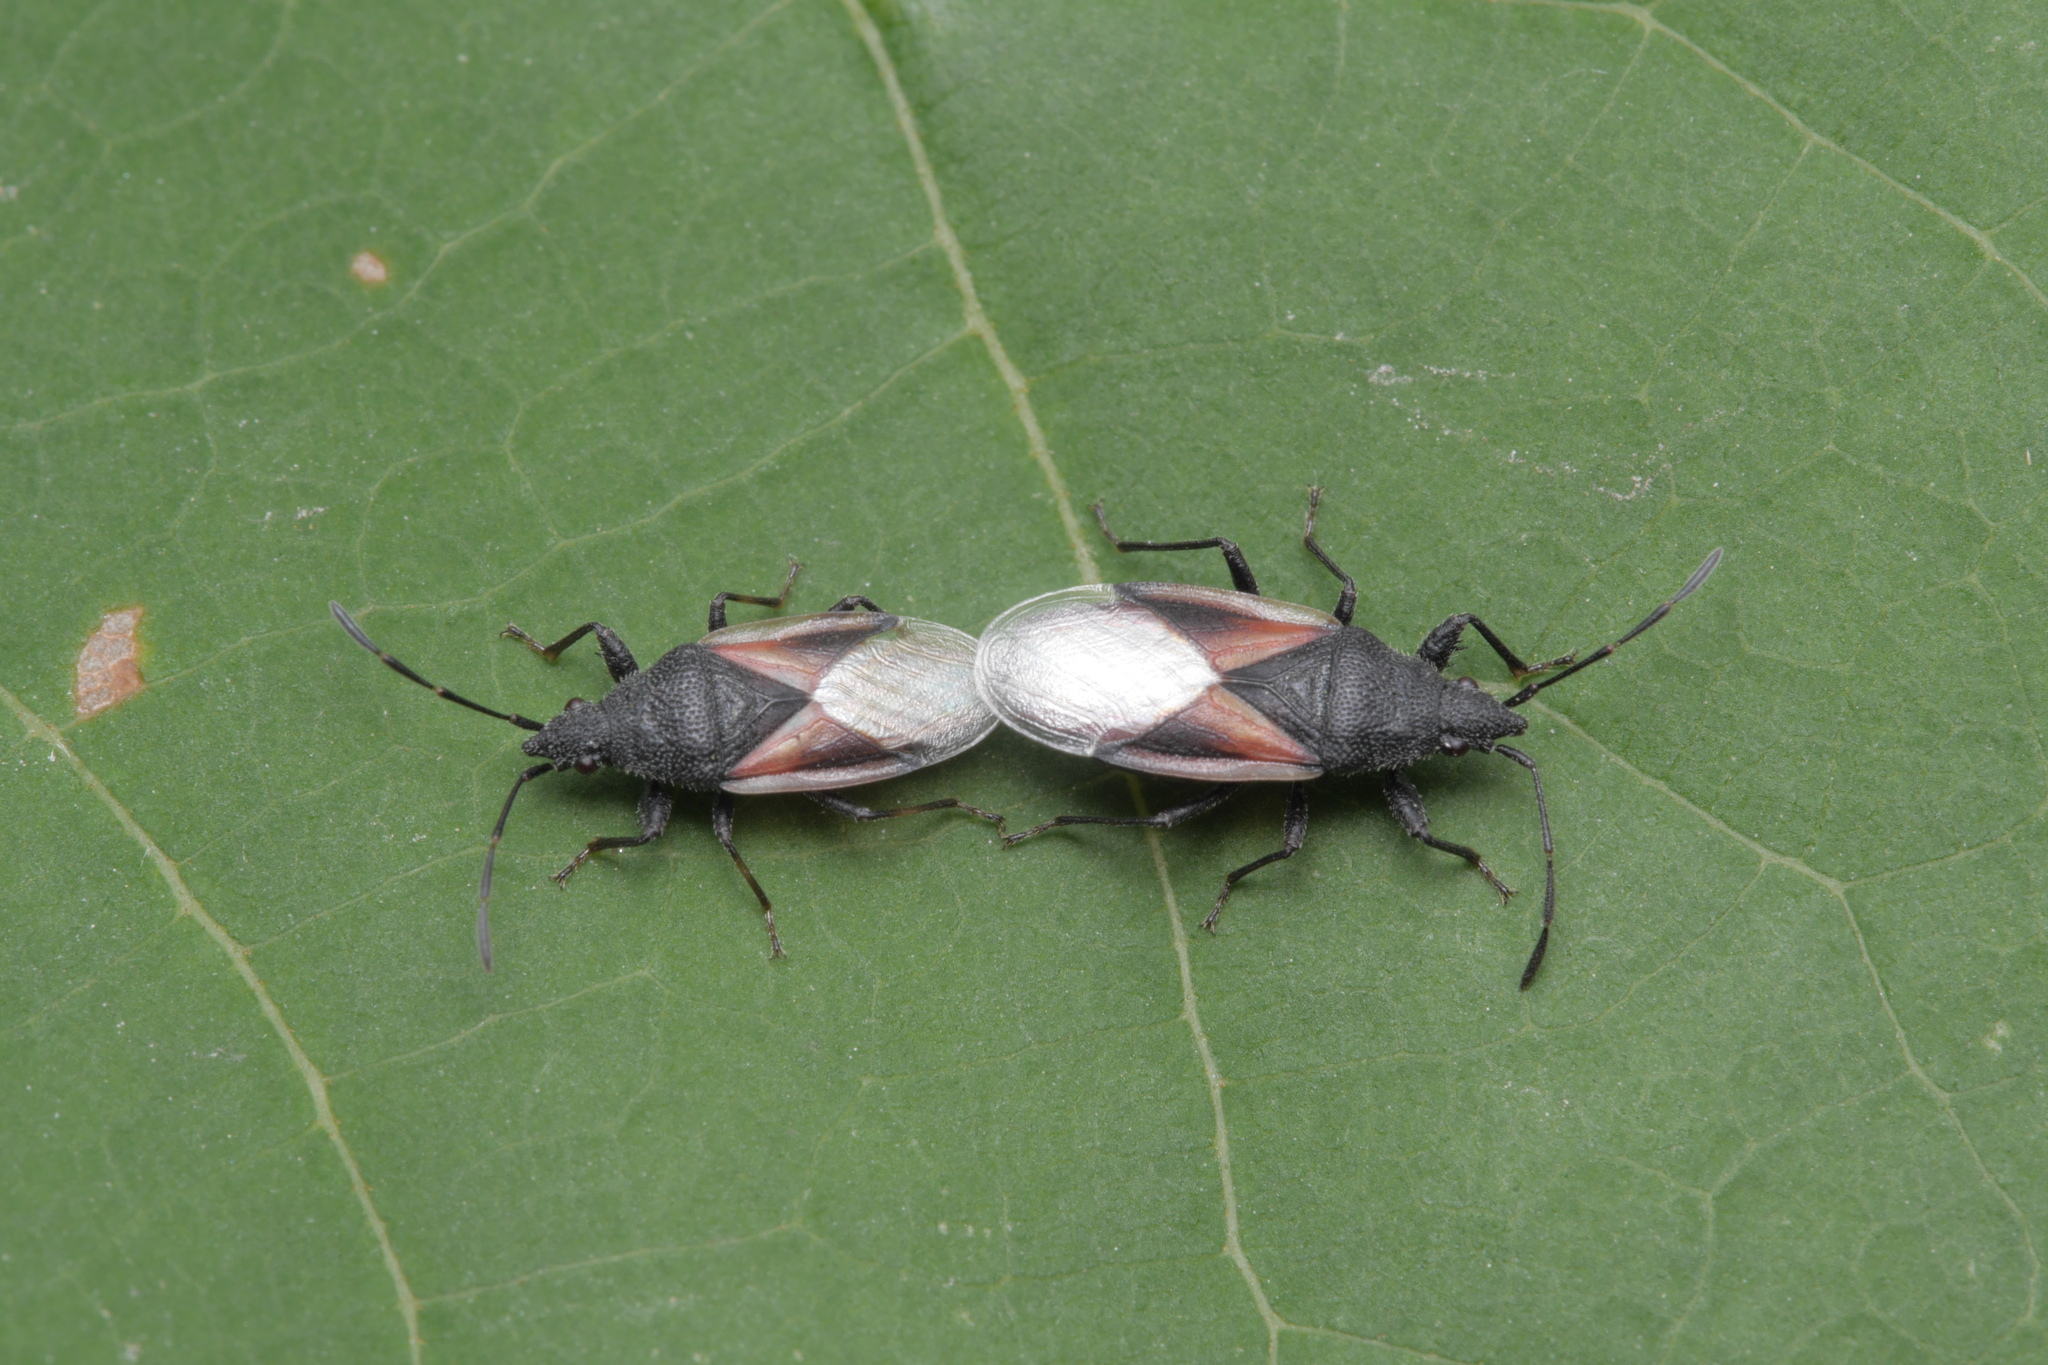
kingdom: Animalia
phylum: Arthropoda
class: Insecta
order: Hemiptera
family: Oxycarenidae
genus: Oxycarenus
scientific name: Oxycarenus lavaterae
